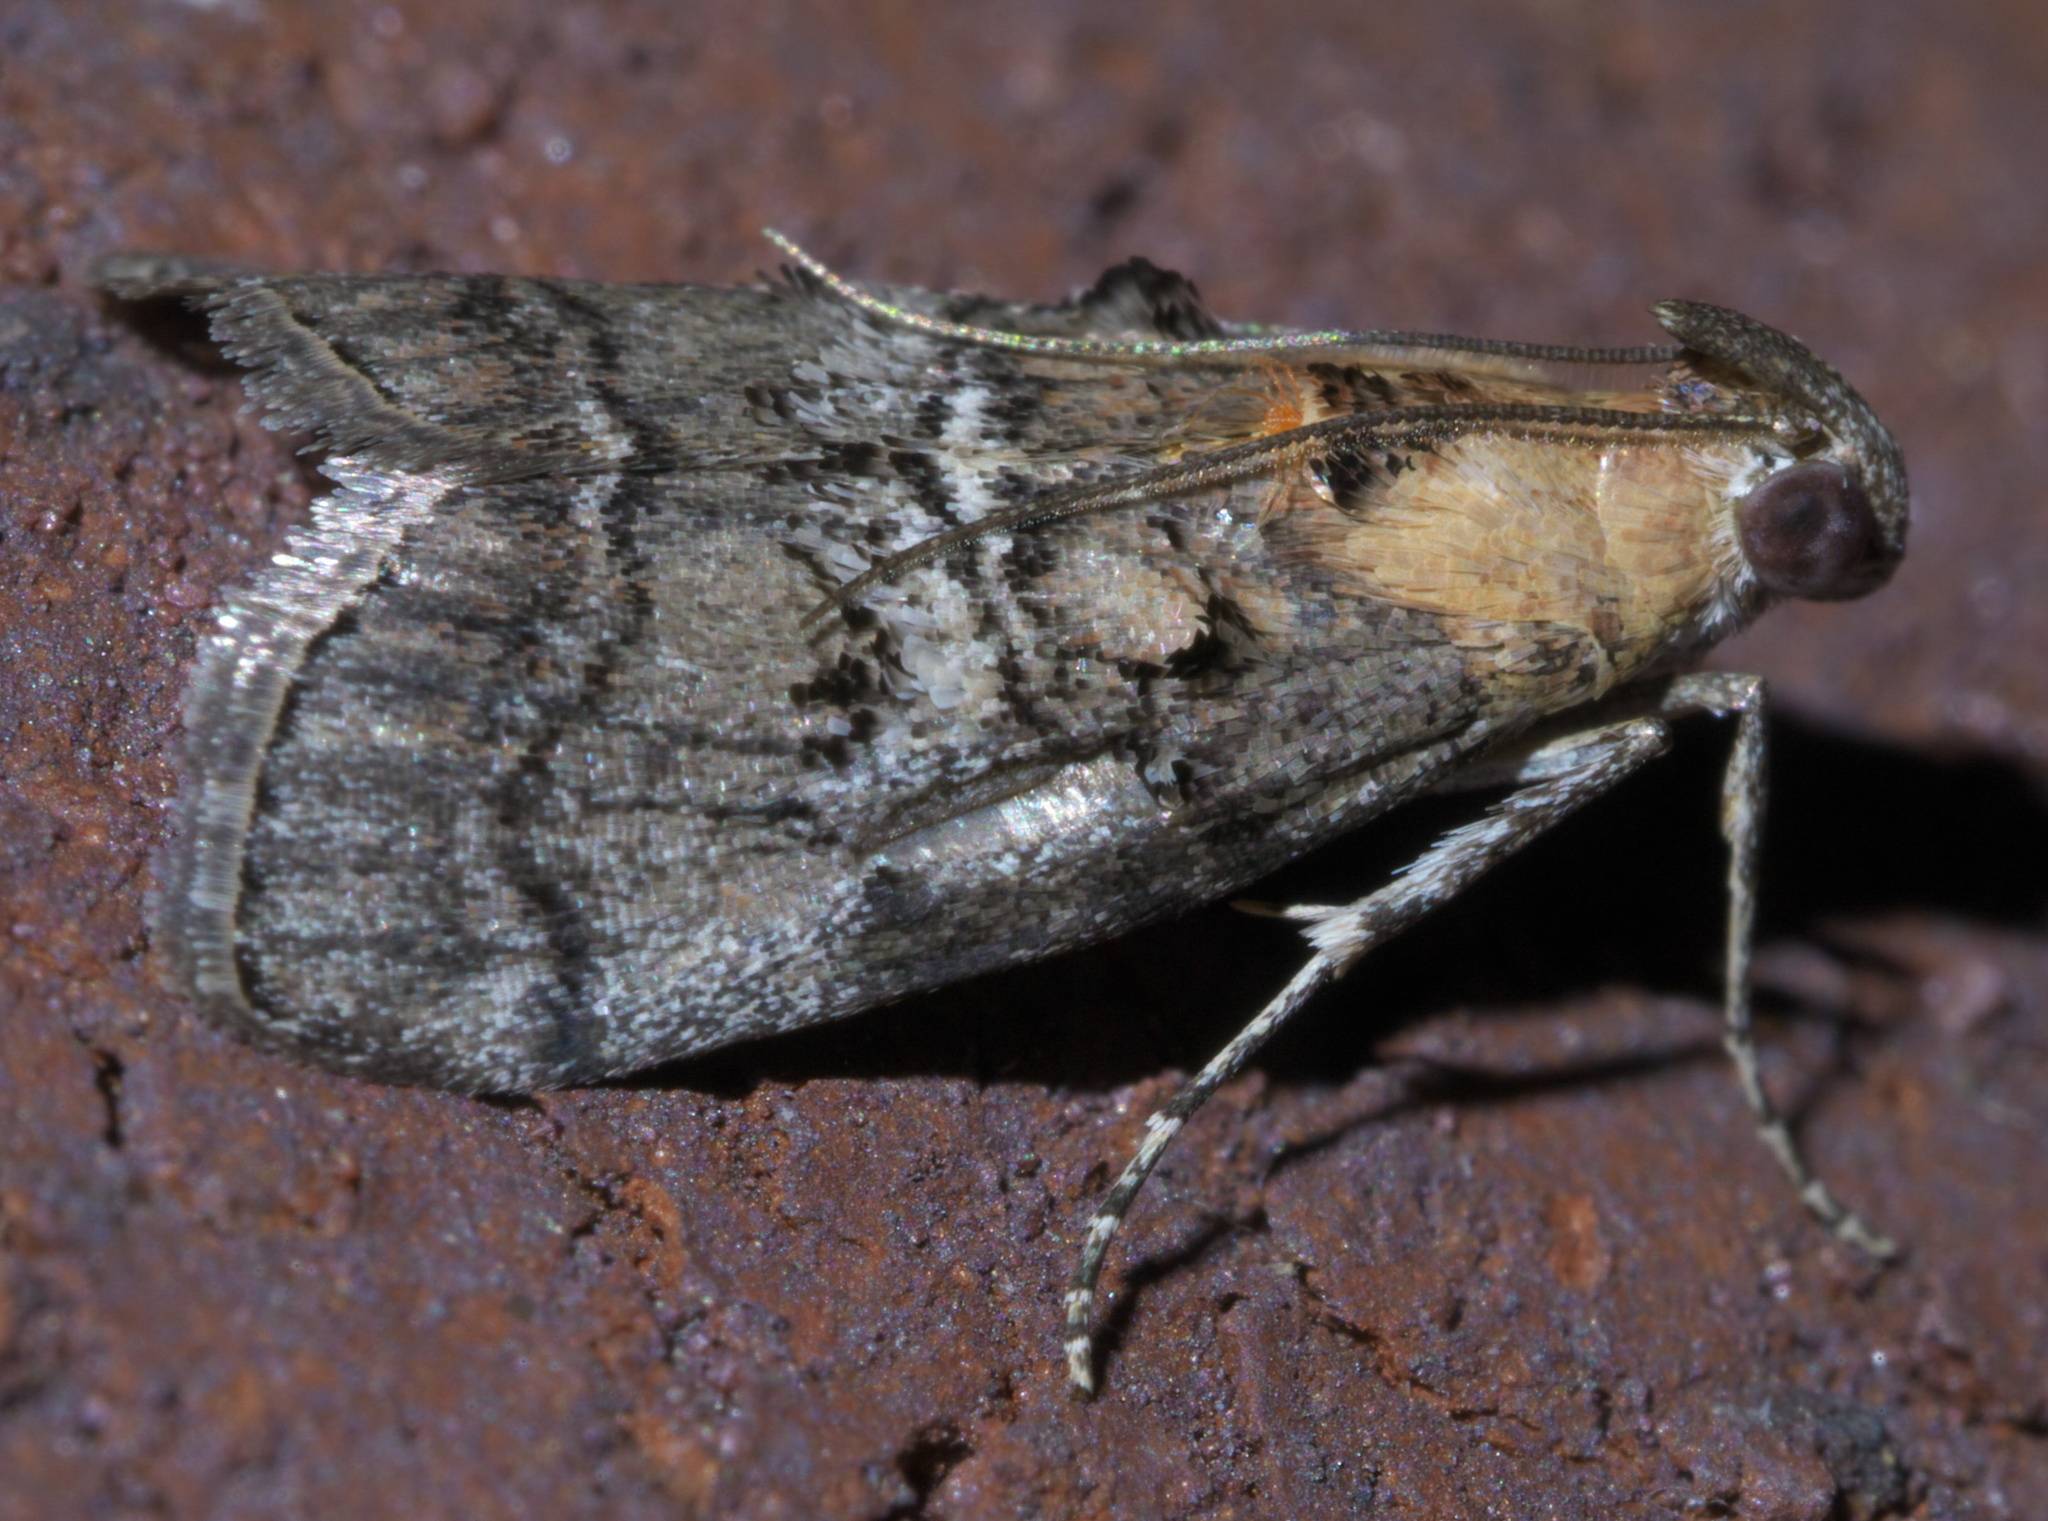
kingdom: Animalia
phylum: Arthropoda
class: Insecta
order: Lepidoptera
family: Pyralidae
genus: Pococera
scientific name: Pococera expandens
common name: Striped oak webworm moth
